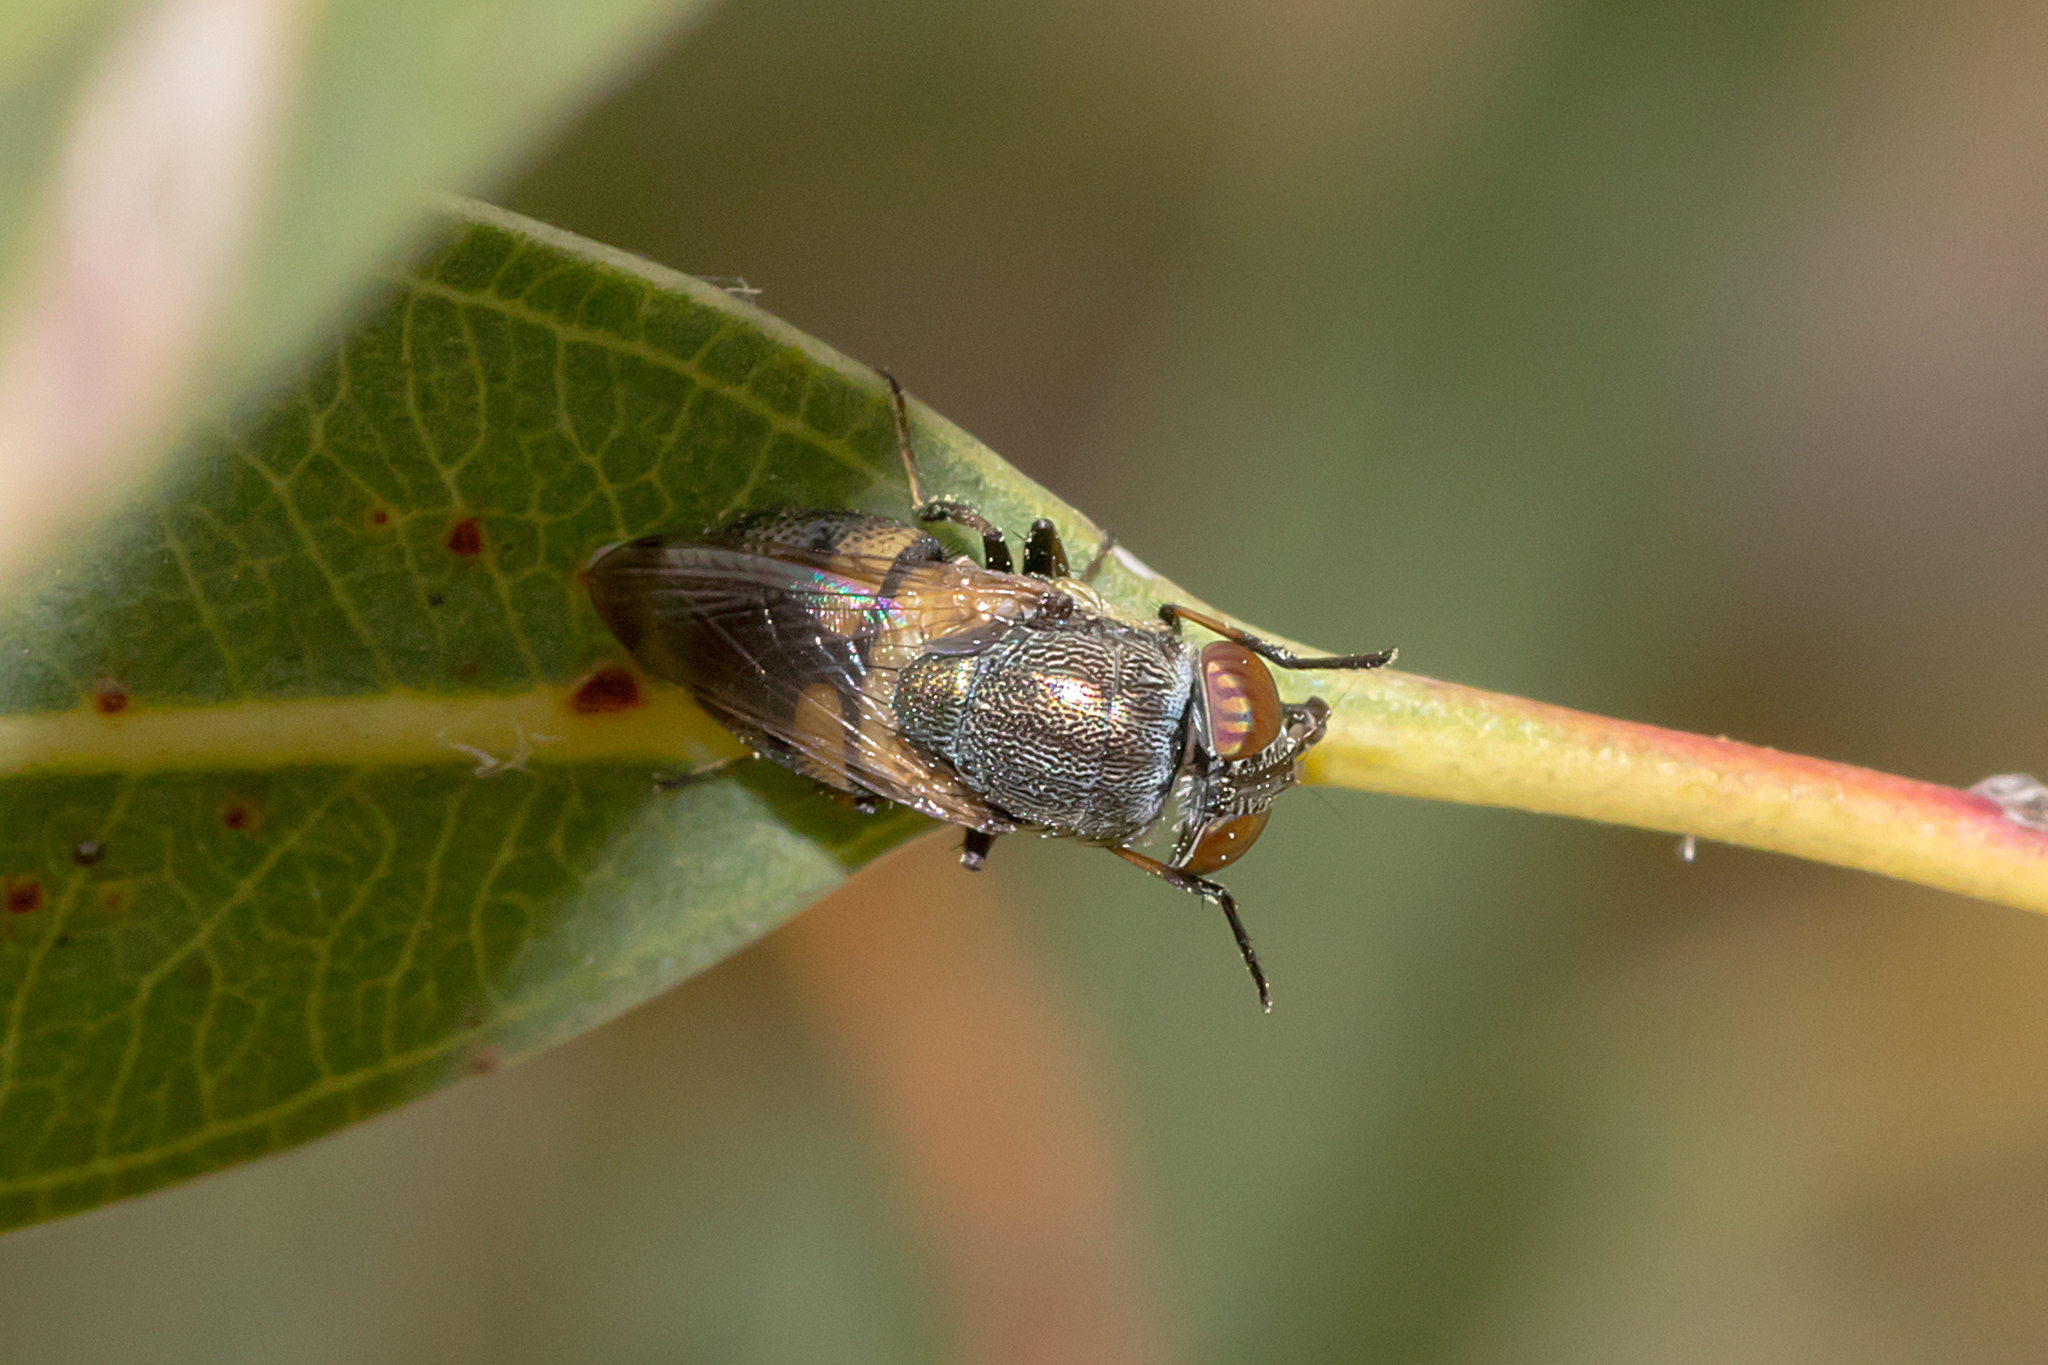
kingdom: Animalia
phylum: Arthropoda
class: Insecta
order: Diptera
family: Calliphoridae
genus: Stomorhina
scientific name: Stomorhina discolor
